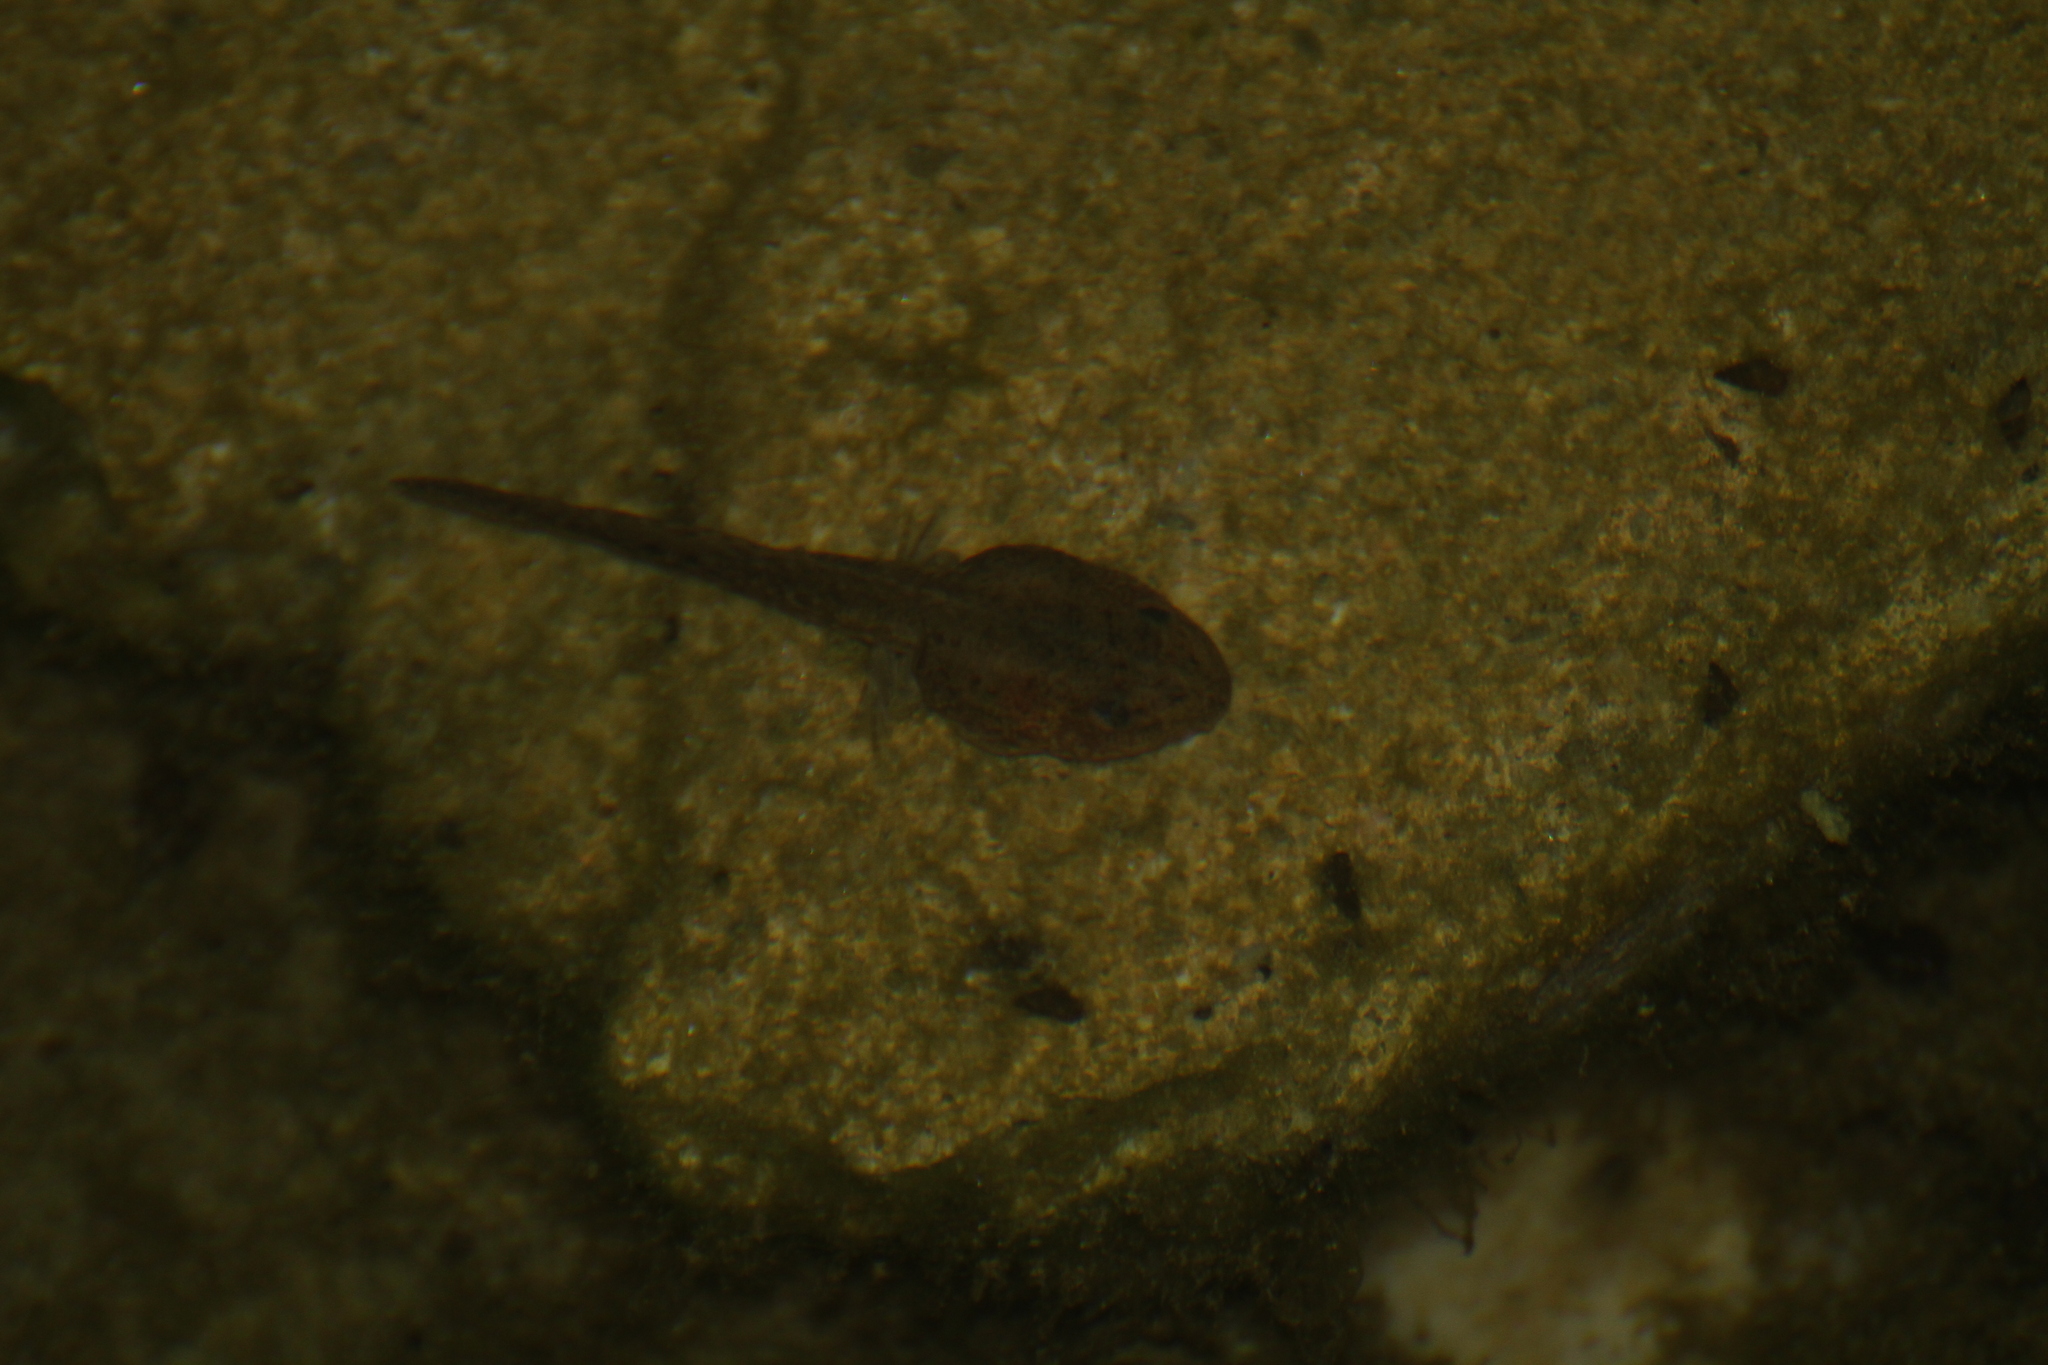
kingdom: Animalia
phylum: Chordata
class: Amphibia
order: Anura
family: Ranidae
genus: Pelophylax
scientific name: Pelophylax
